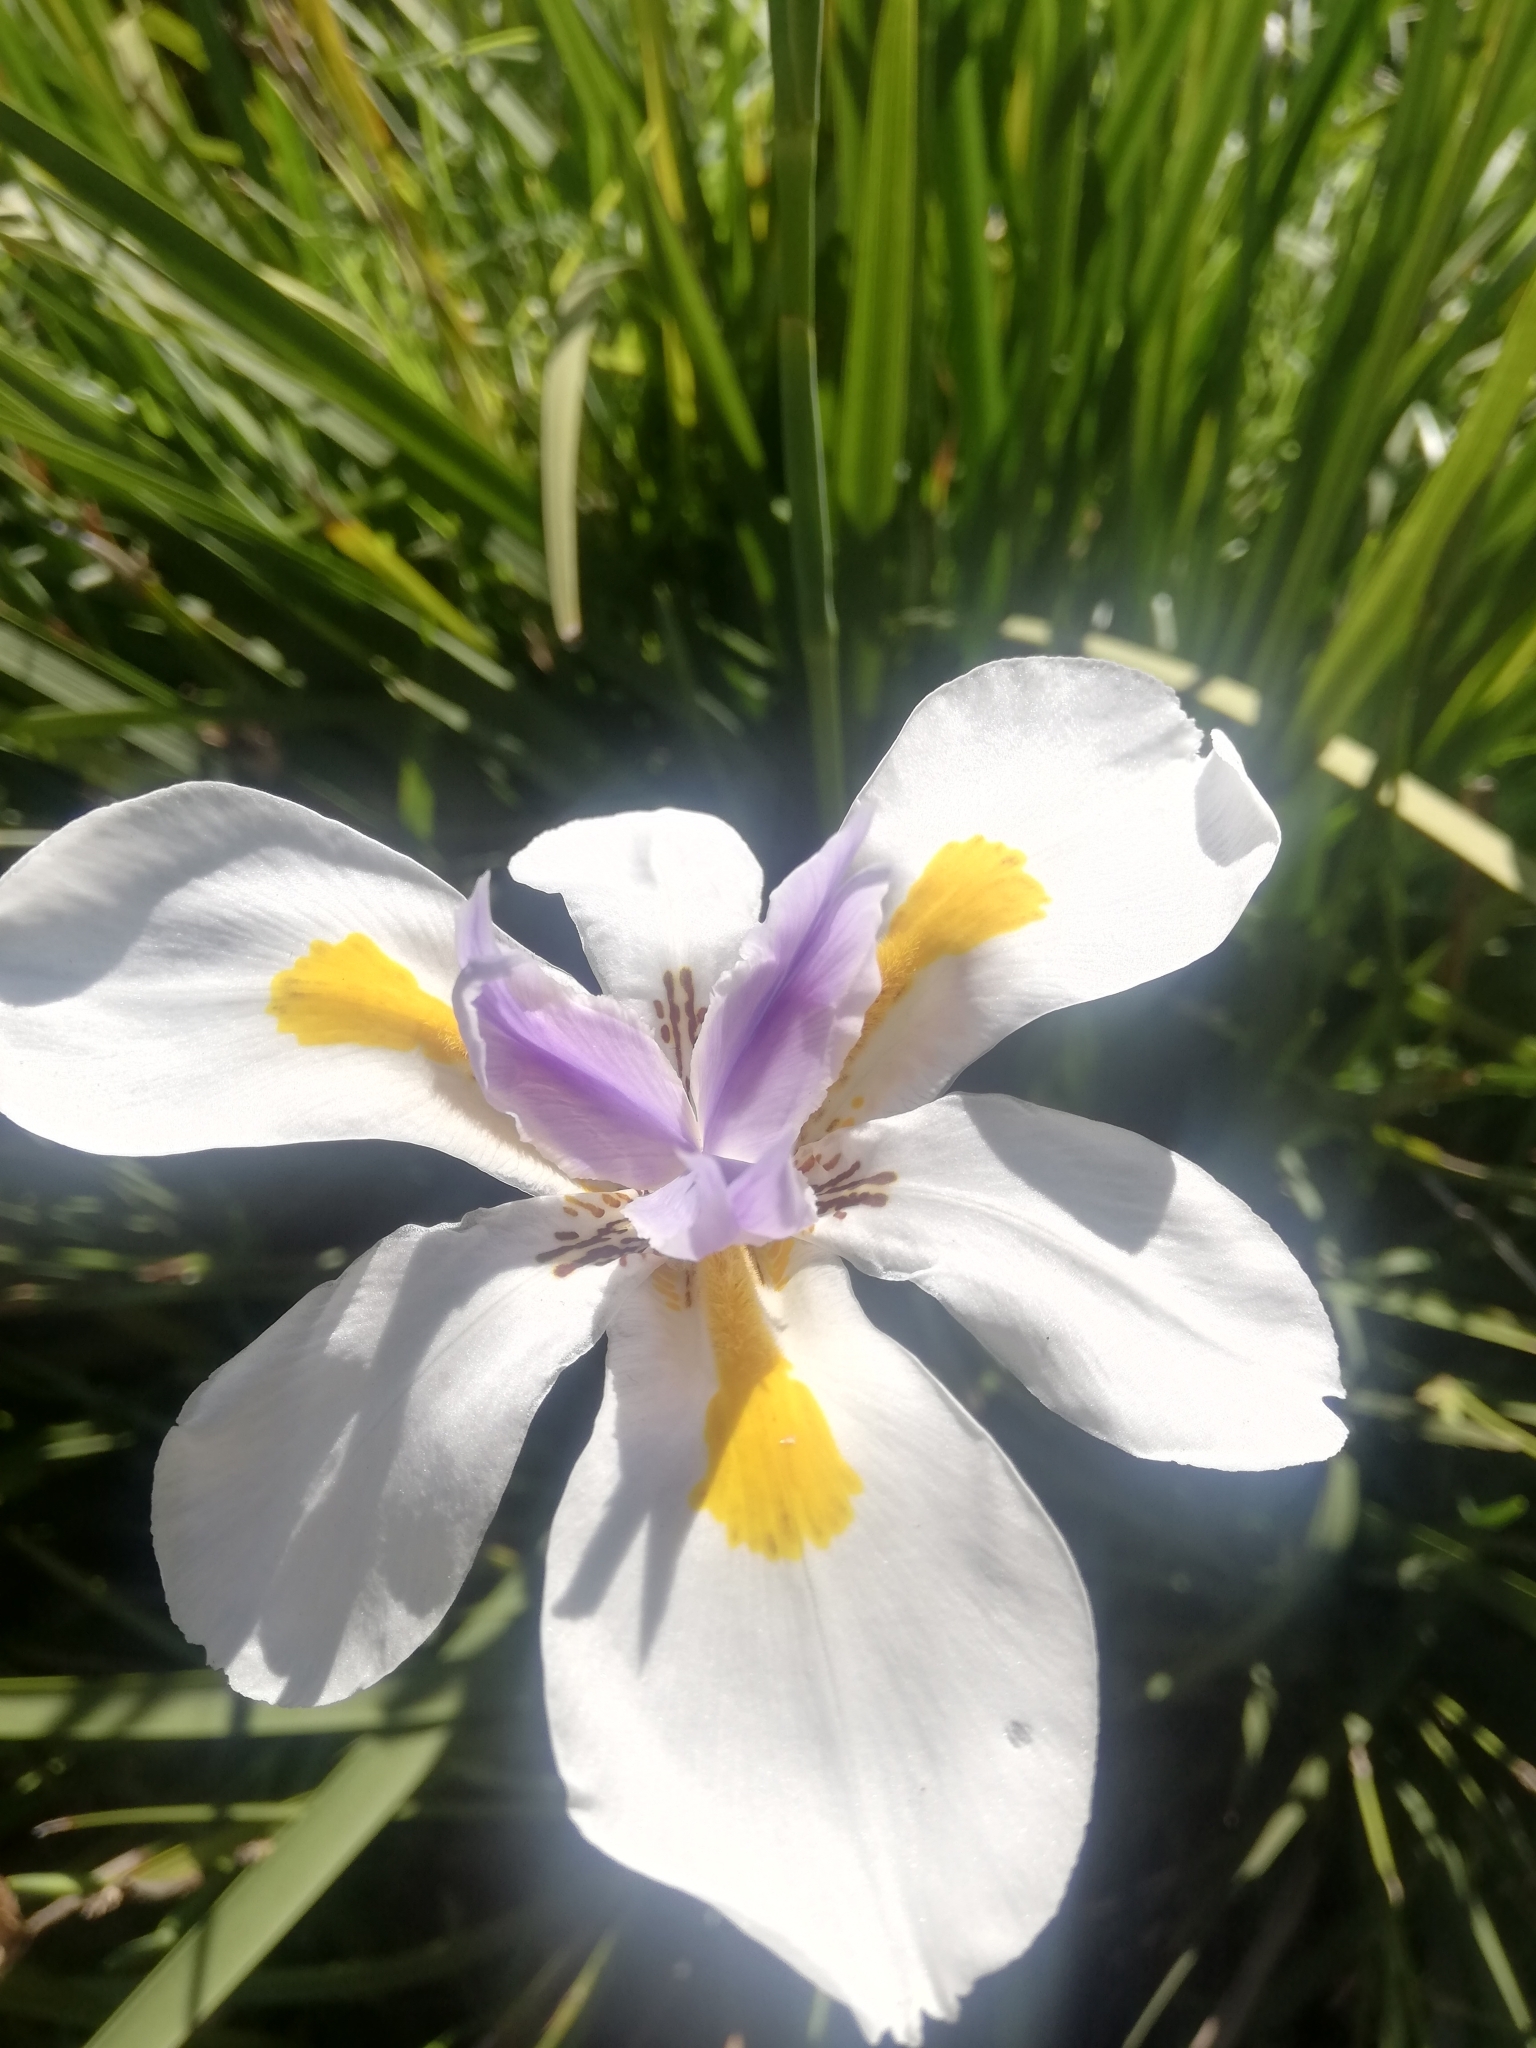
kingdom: Plantae
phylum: Tracheophyta
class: Liliopsida
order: Asparagales
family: Iridaceae
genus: Dietes
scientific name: Dietes grandiflora
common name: Wild iris
